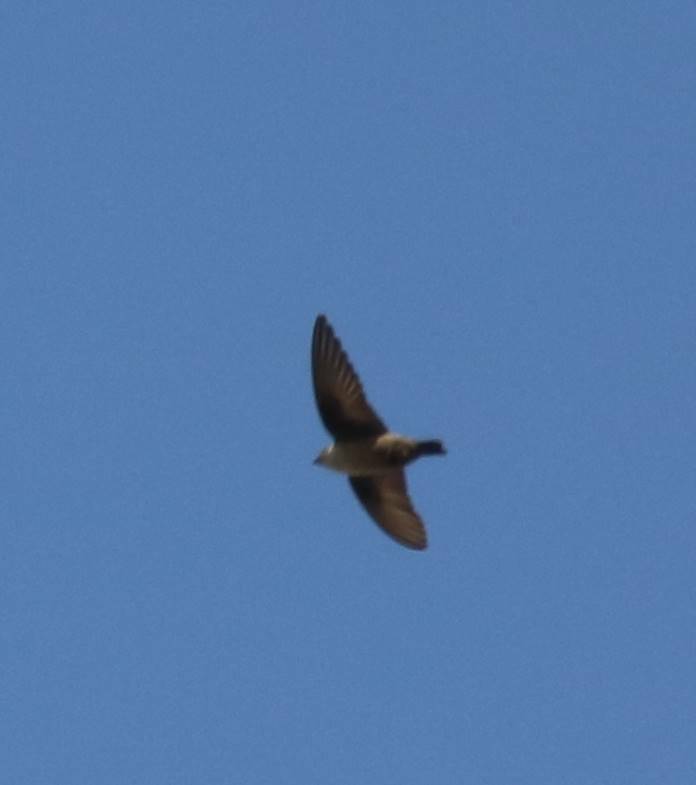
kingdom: Animalia
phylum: Chordata
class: Aves
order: Passeriformes
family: Hirundinidae
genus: Ptyonoprogne
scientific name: Ptyonoprogne rupestris
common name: Eurasian crag martin
